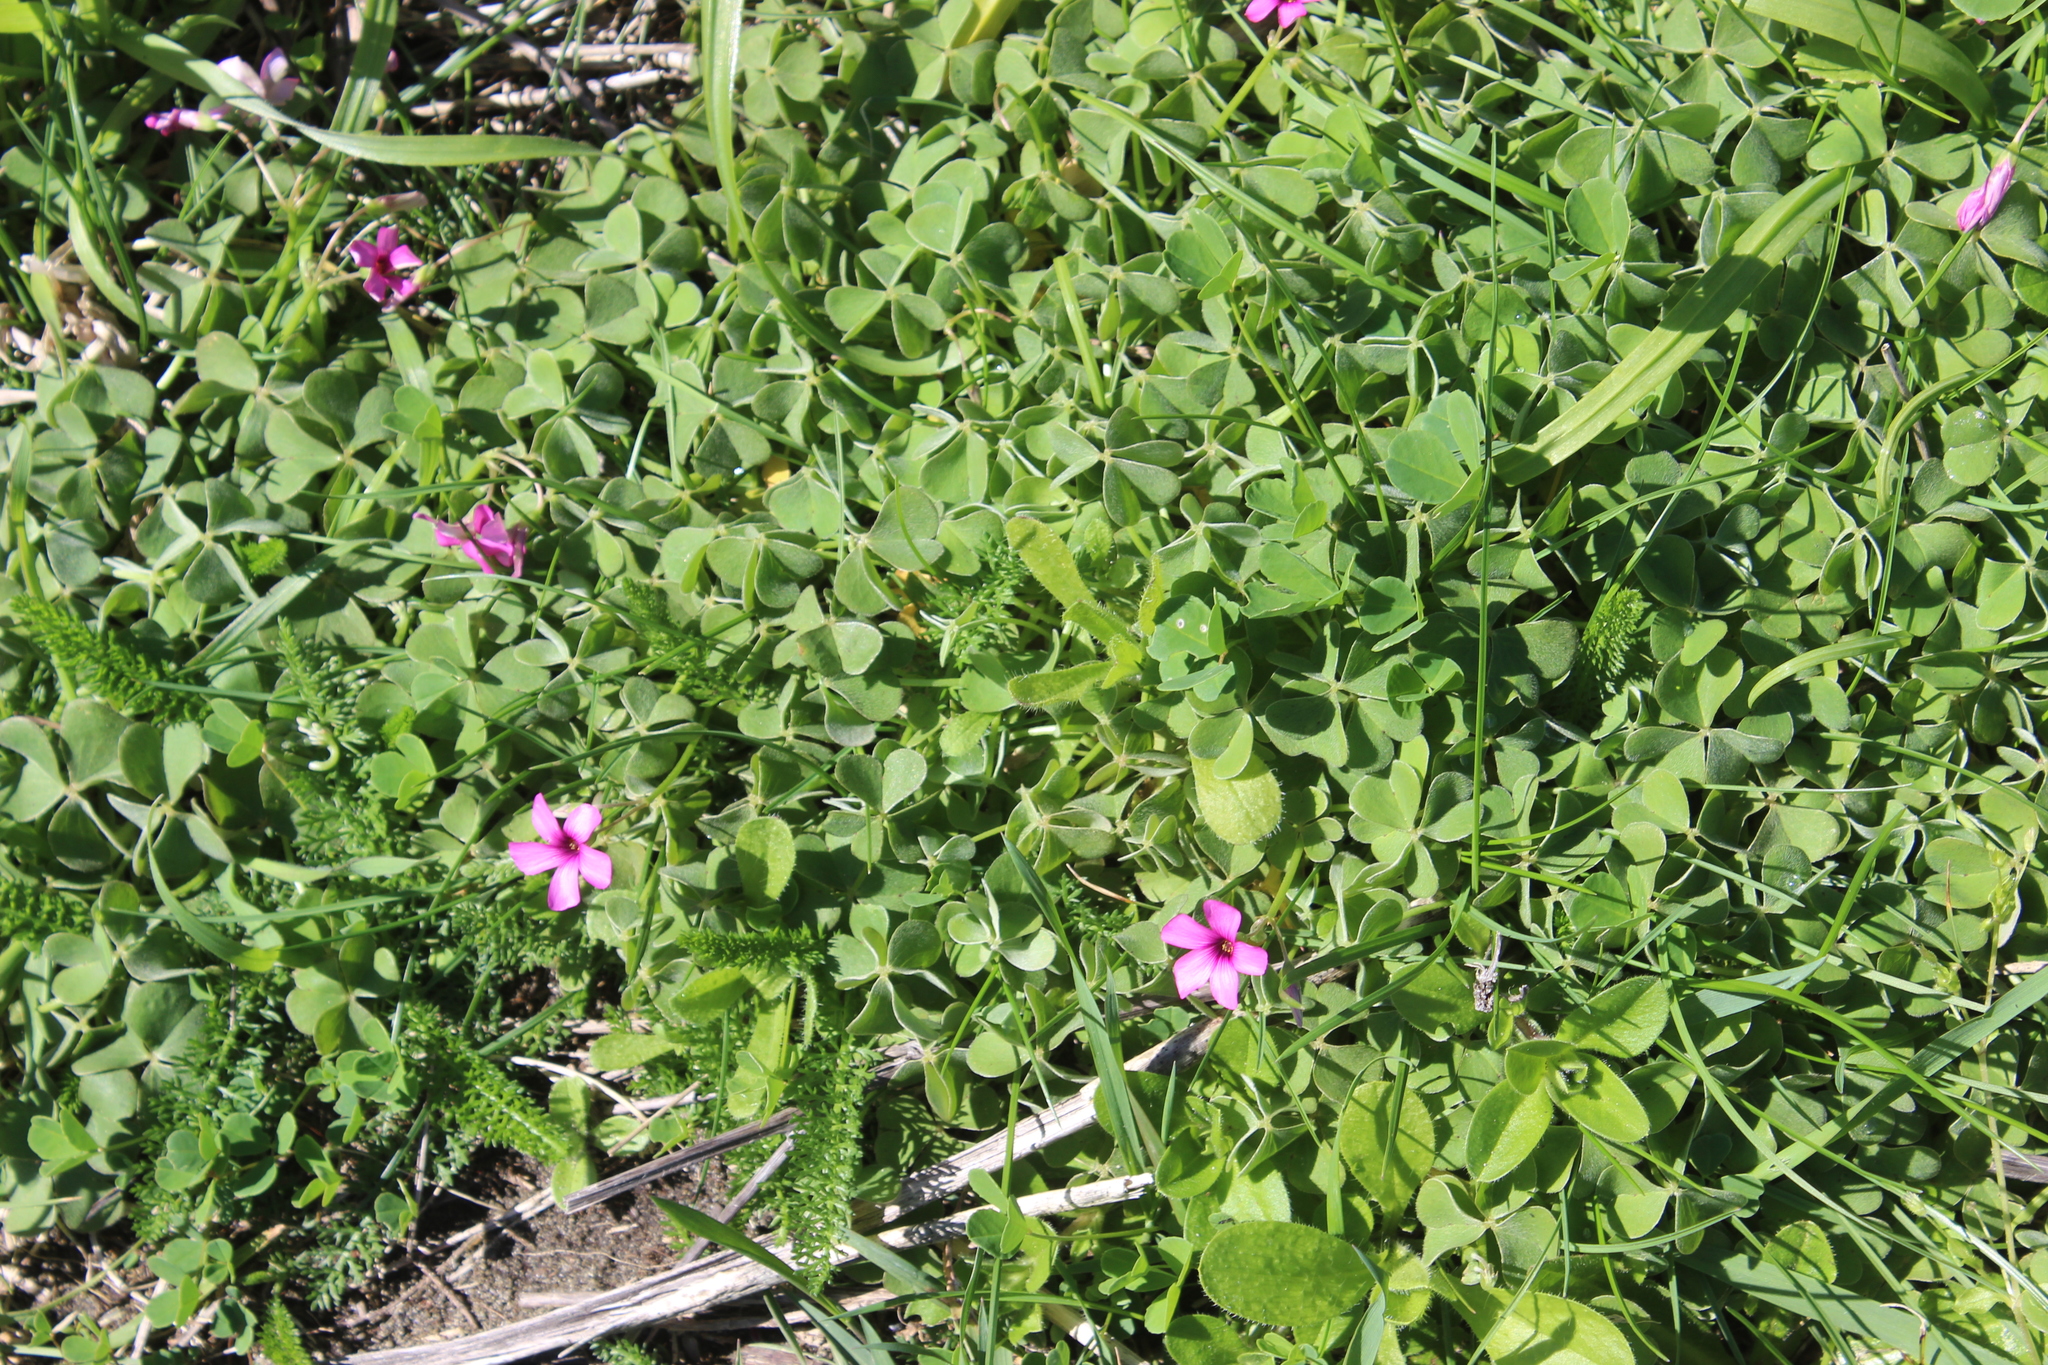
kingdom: Plantae
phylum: Tracheophyta
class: Magnoliopsida
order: Oxalidales
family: Oxalidaceae
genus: Oxalis
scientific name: Oxalis articulata
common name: Pink-sorrel
